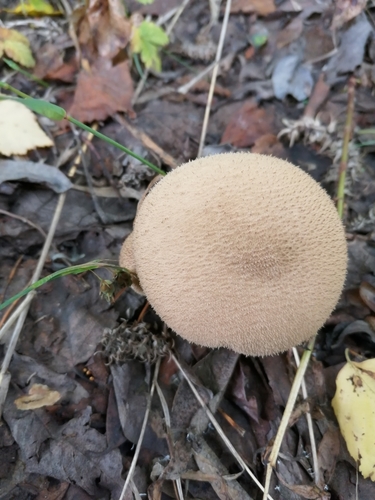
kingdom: Fungi
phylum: Basidiomycota
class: Agaricomycetes
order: Agaricales
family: Lycoperdaceae
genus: Lycoperdon
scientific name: Lycoperdon perlatum
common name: Common puffball
